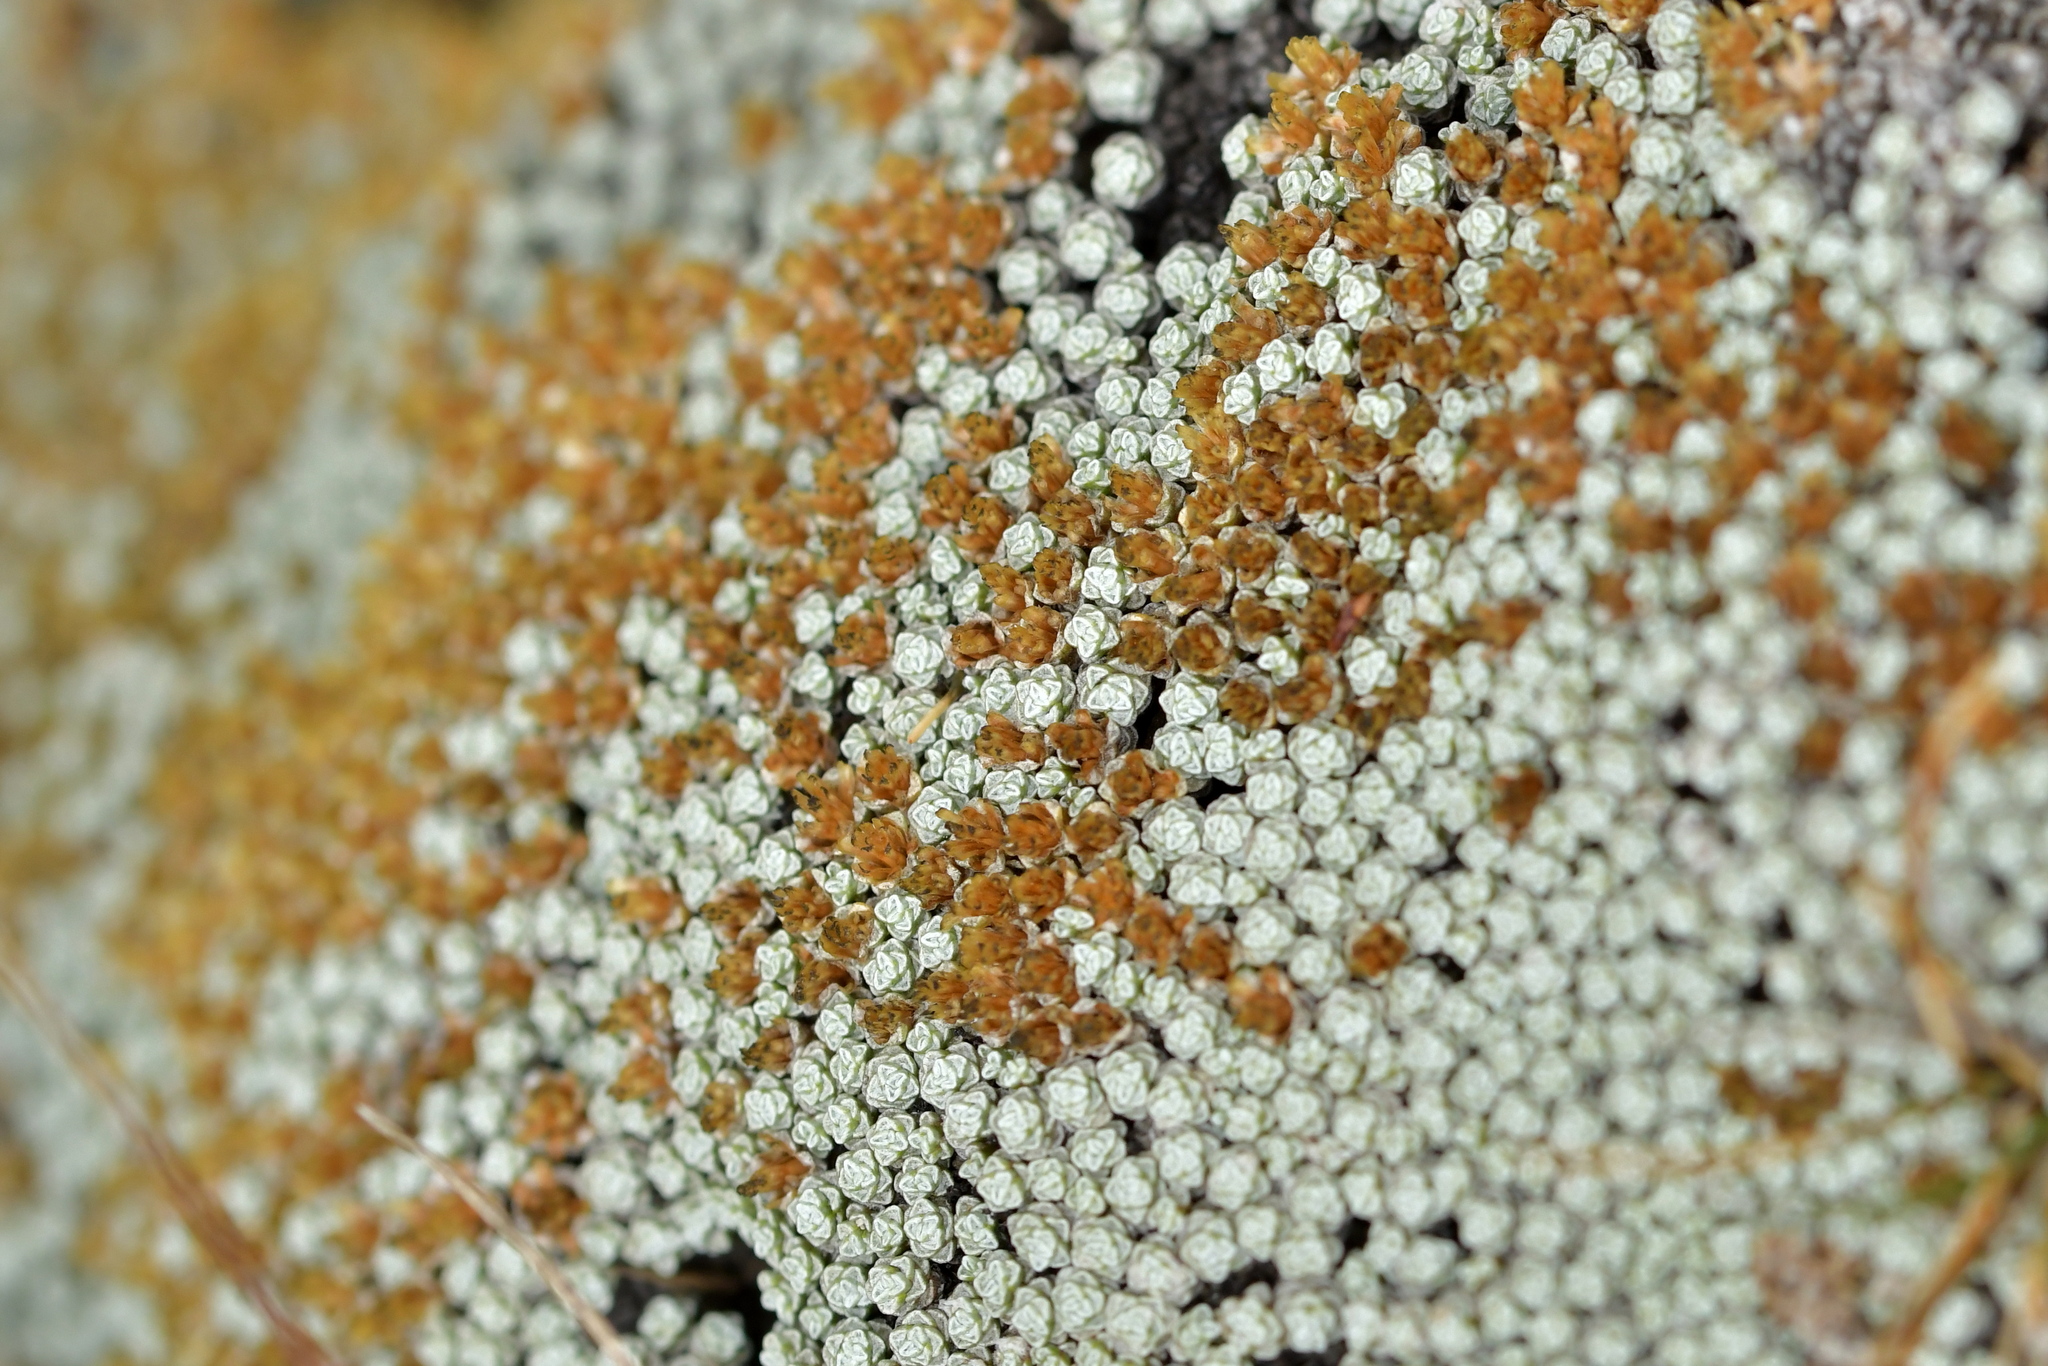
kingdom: Plantae
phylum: Tracheophyta
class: Magnoliopsida
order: Asterales
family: Asteraceae
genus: Raoulia
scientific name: Raoulia australis
